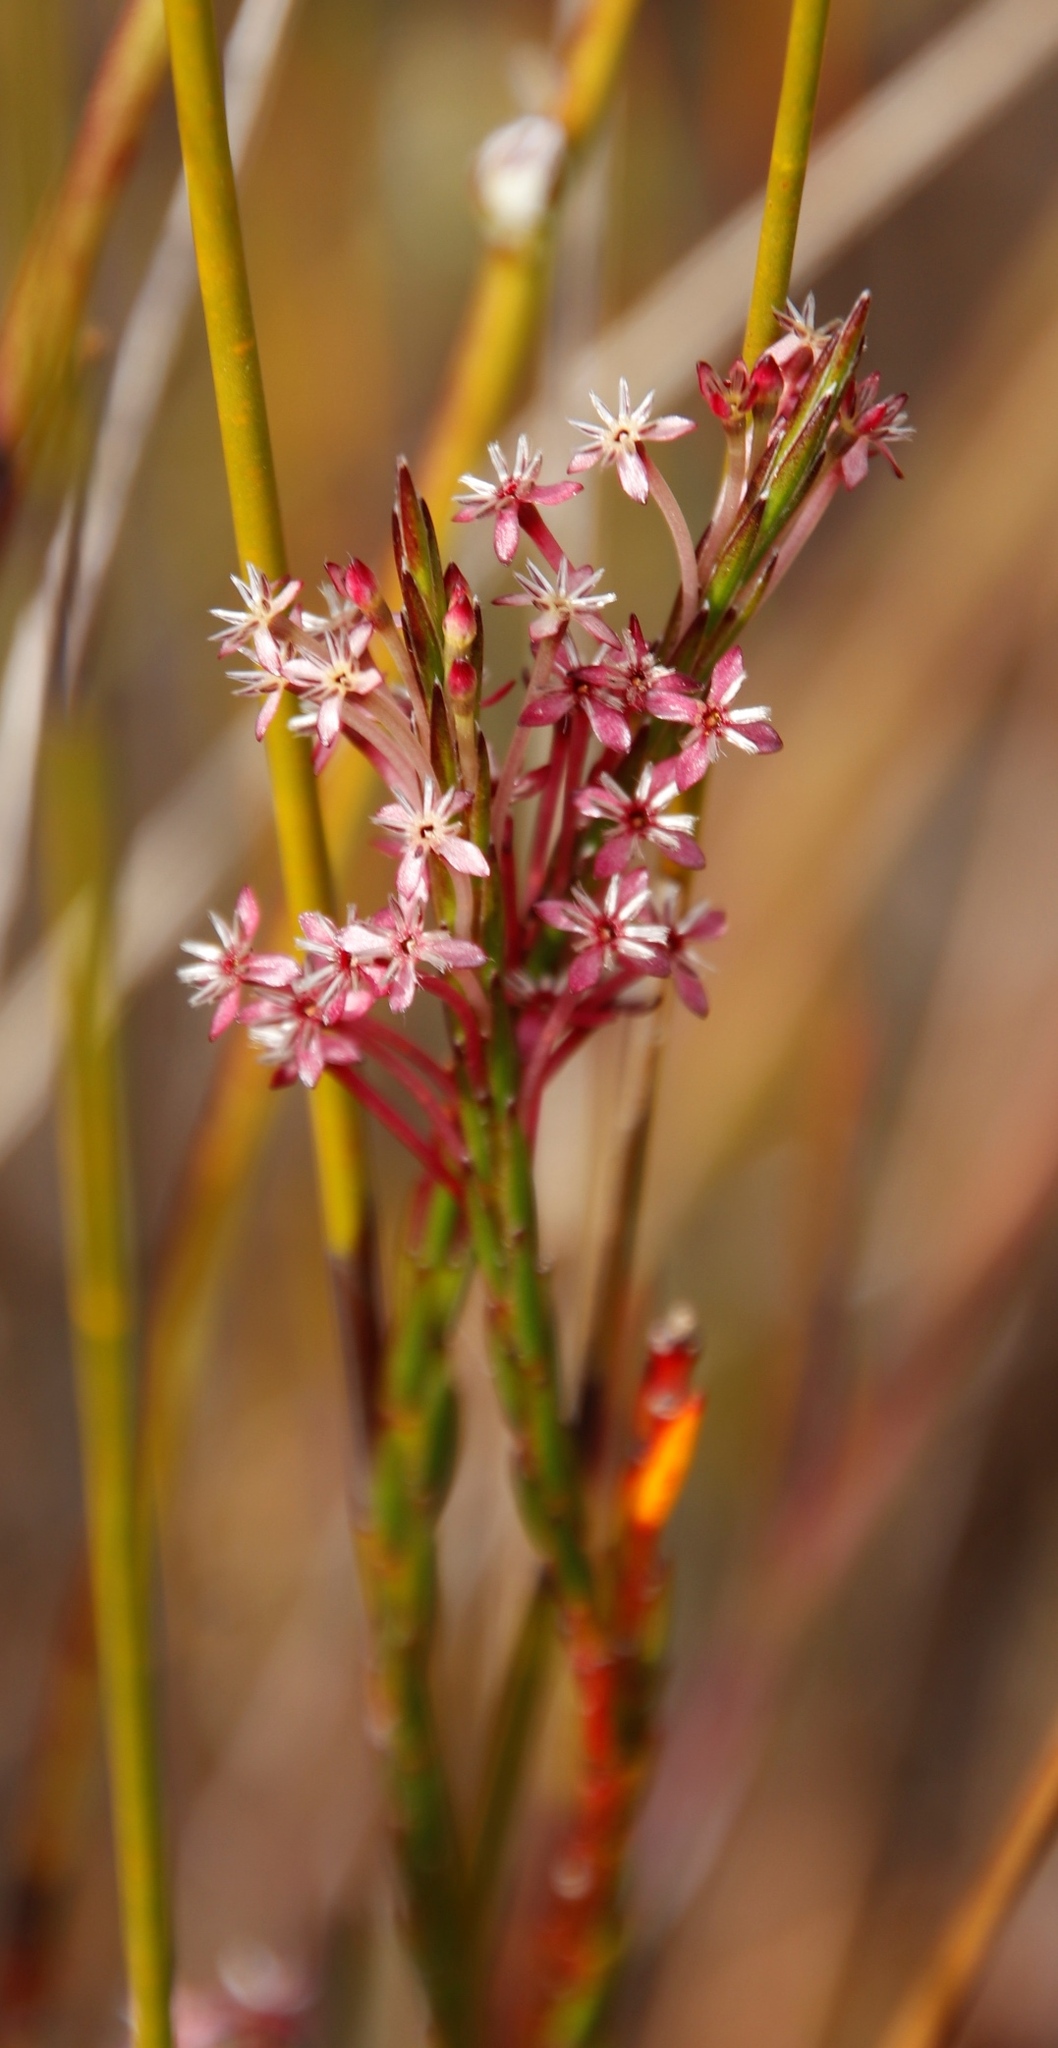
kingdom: Plantae
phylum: Tracheophyta
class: Magnoliopsida
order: Malvales
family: Thymelaeaceae
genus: Struthiola
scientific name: Struthiola macowanii
